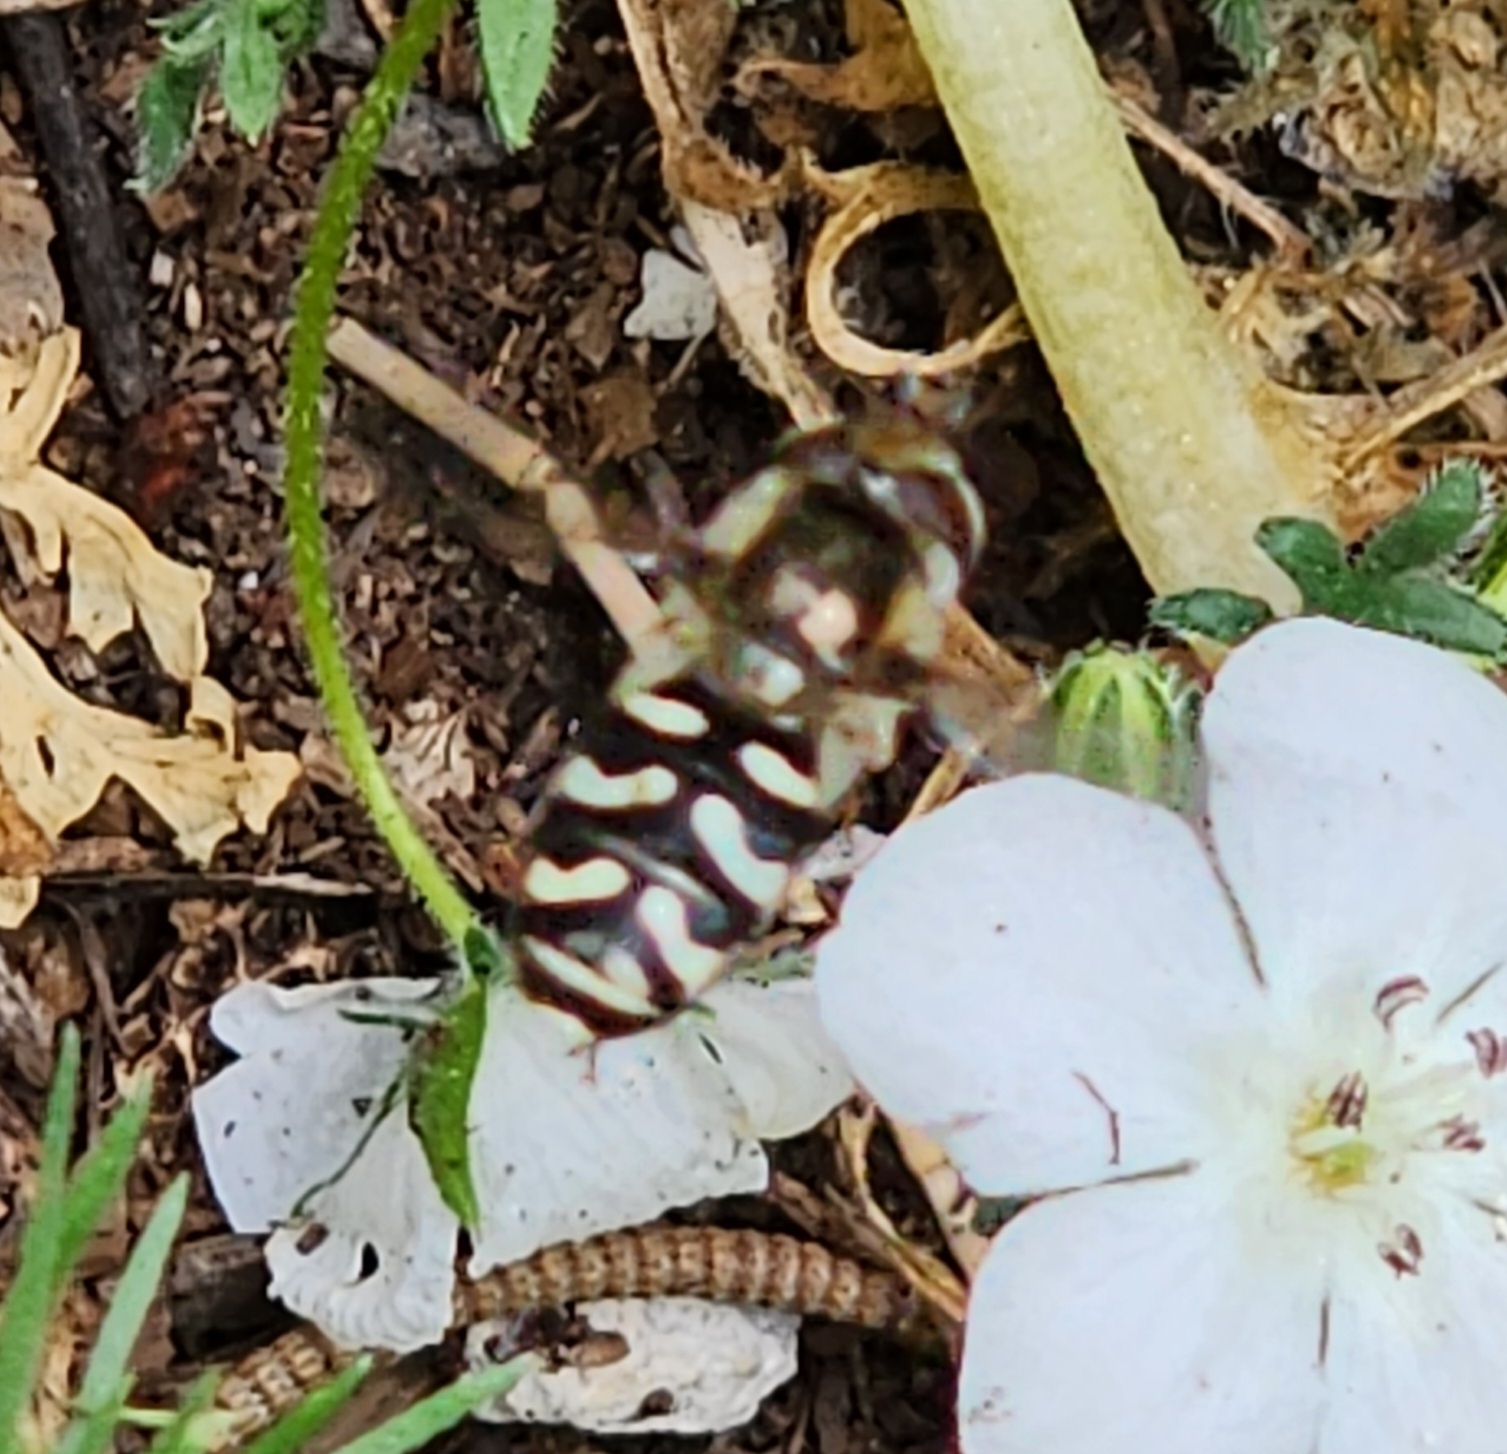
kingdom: Animalia
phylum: Arthropoda
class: Insecta
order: Diptera
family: Syrphidae
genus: Scaeva
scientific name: Scaeva affinis
